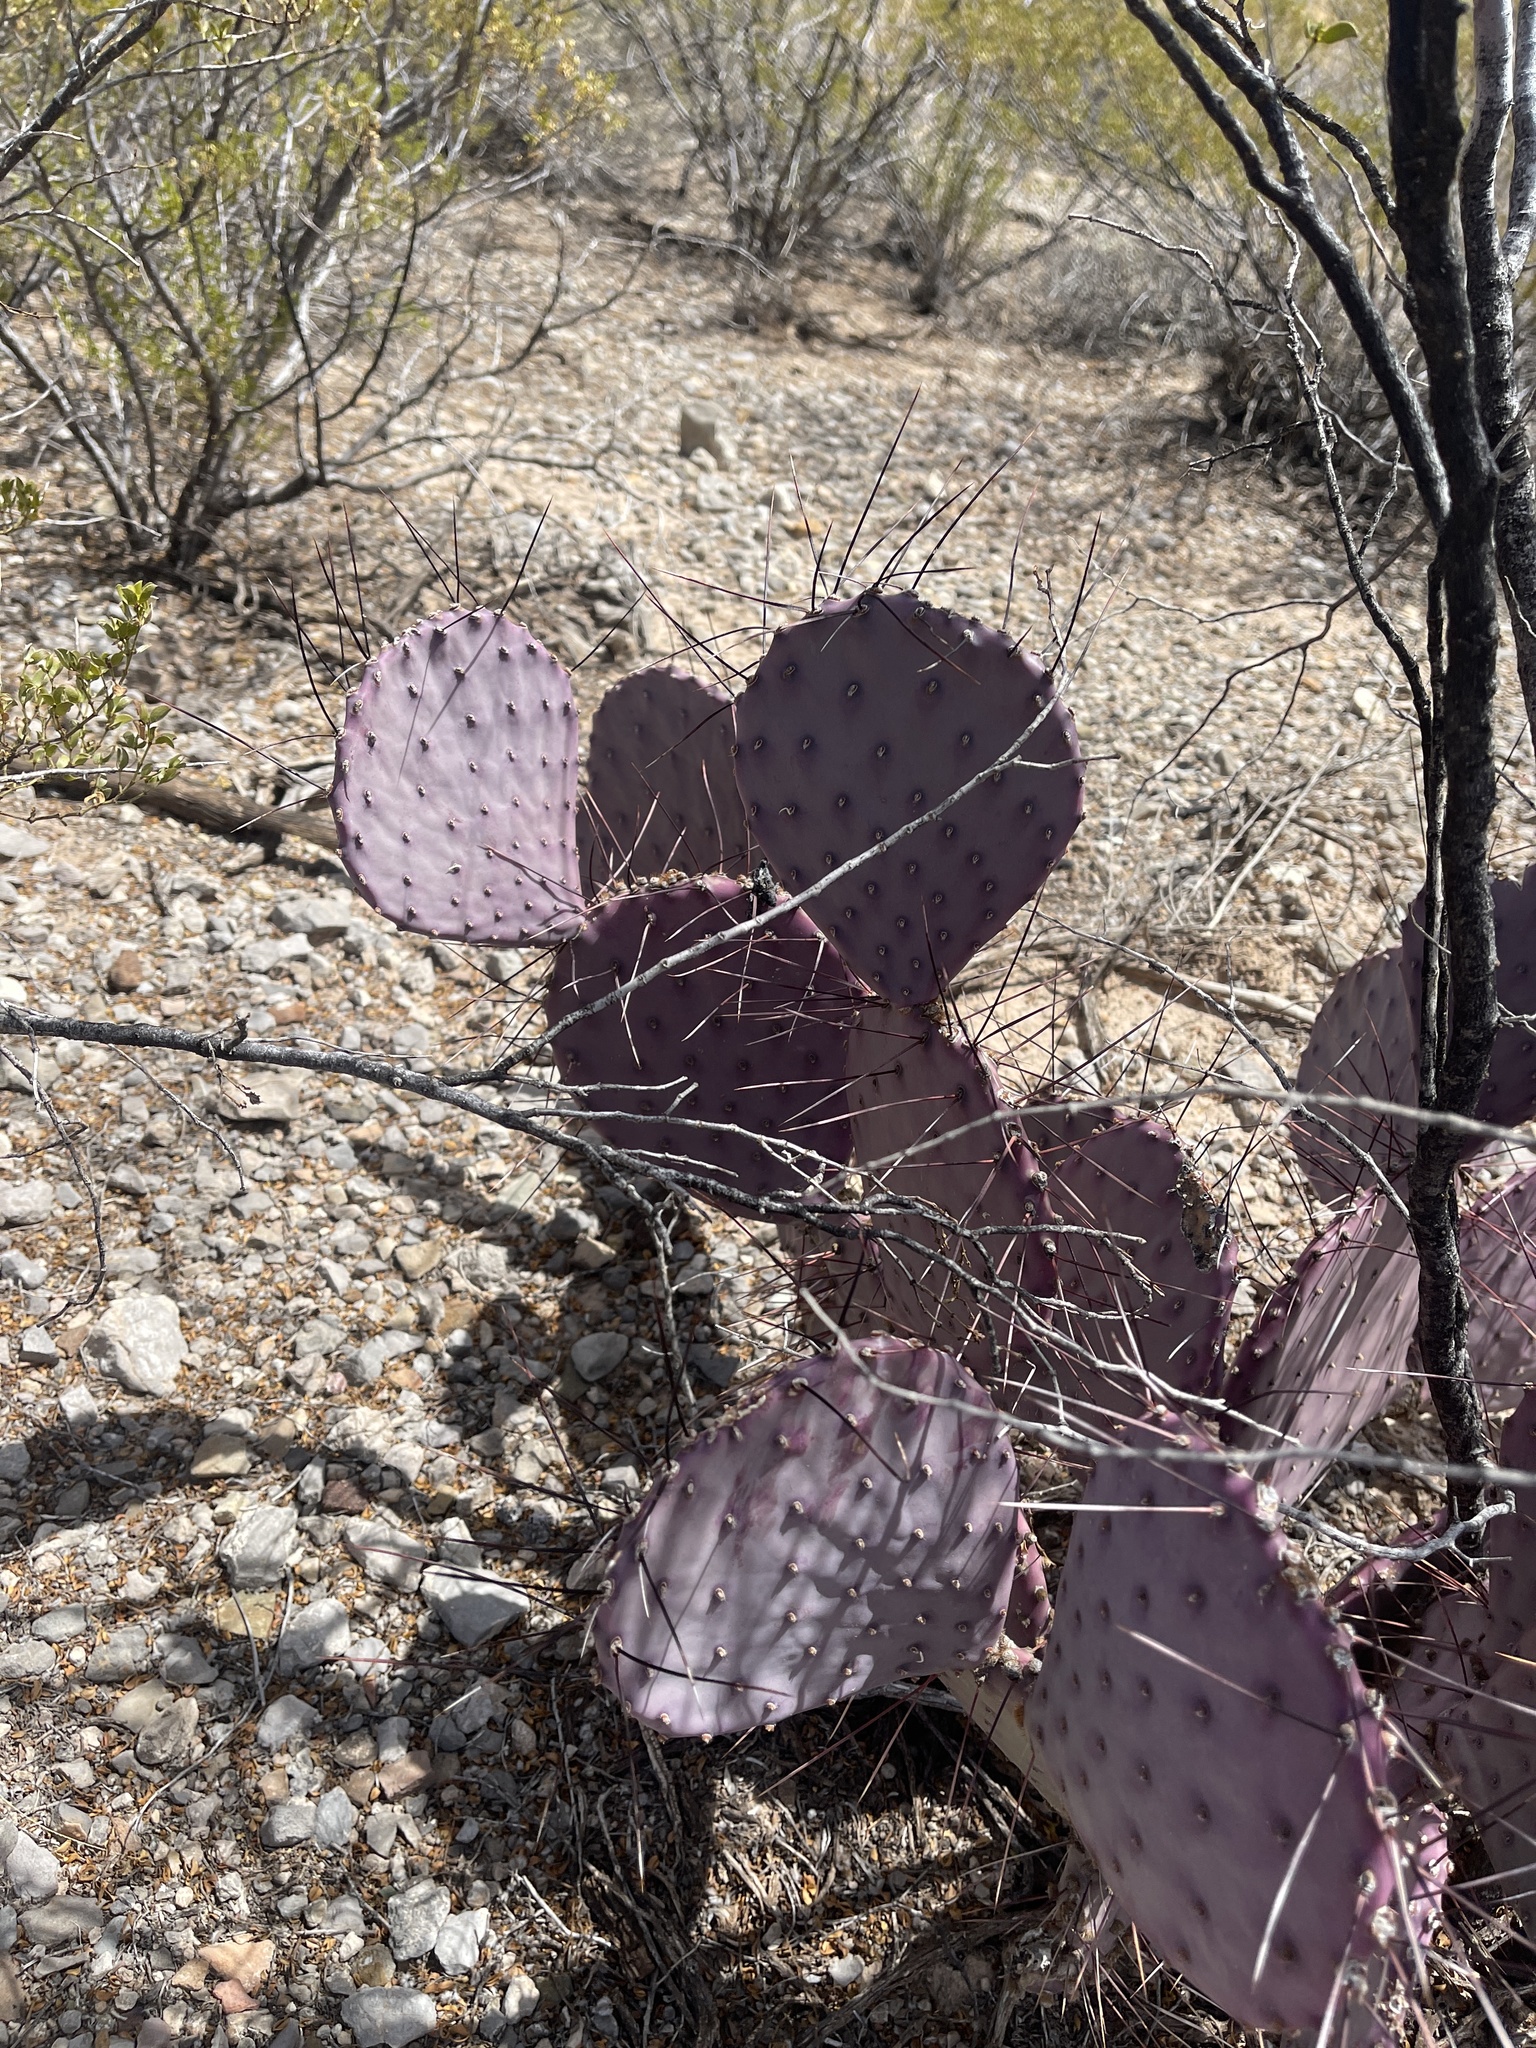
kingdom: Plantae
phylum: Tracheophyta
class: Magnoliopsida
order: Caryophyllales
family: Cactaceae
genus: Opuntia
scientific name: Opuntia macrocentra
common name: Purple prickly-pear
